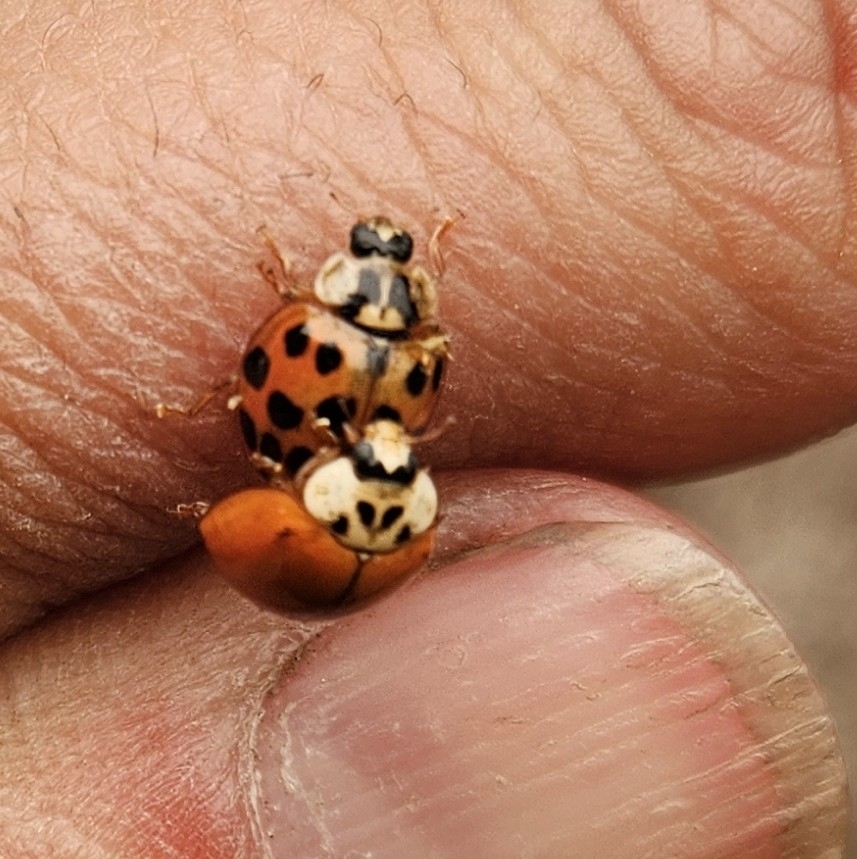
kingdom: Animalia
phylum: Arthropoda
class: Insecta
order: Coleoptera
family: Coccinellidae
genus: Harmonia
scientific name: Harmonia axyridis
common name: Harlequin ladybird
